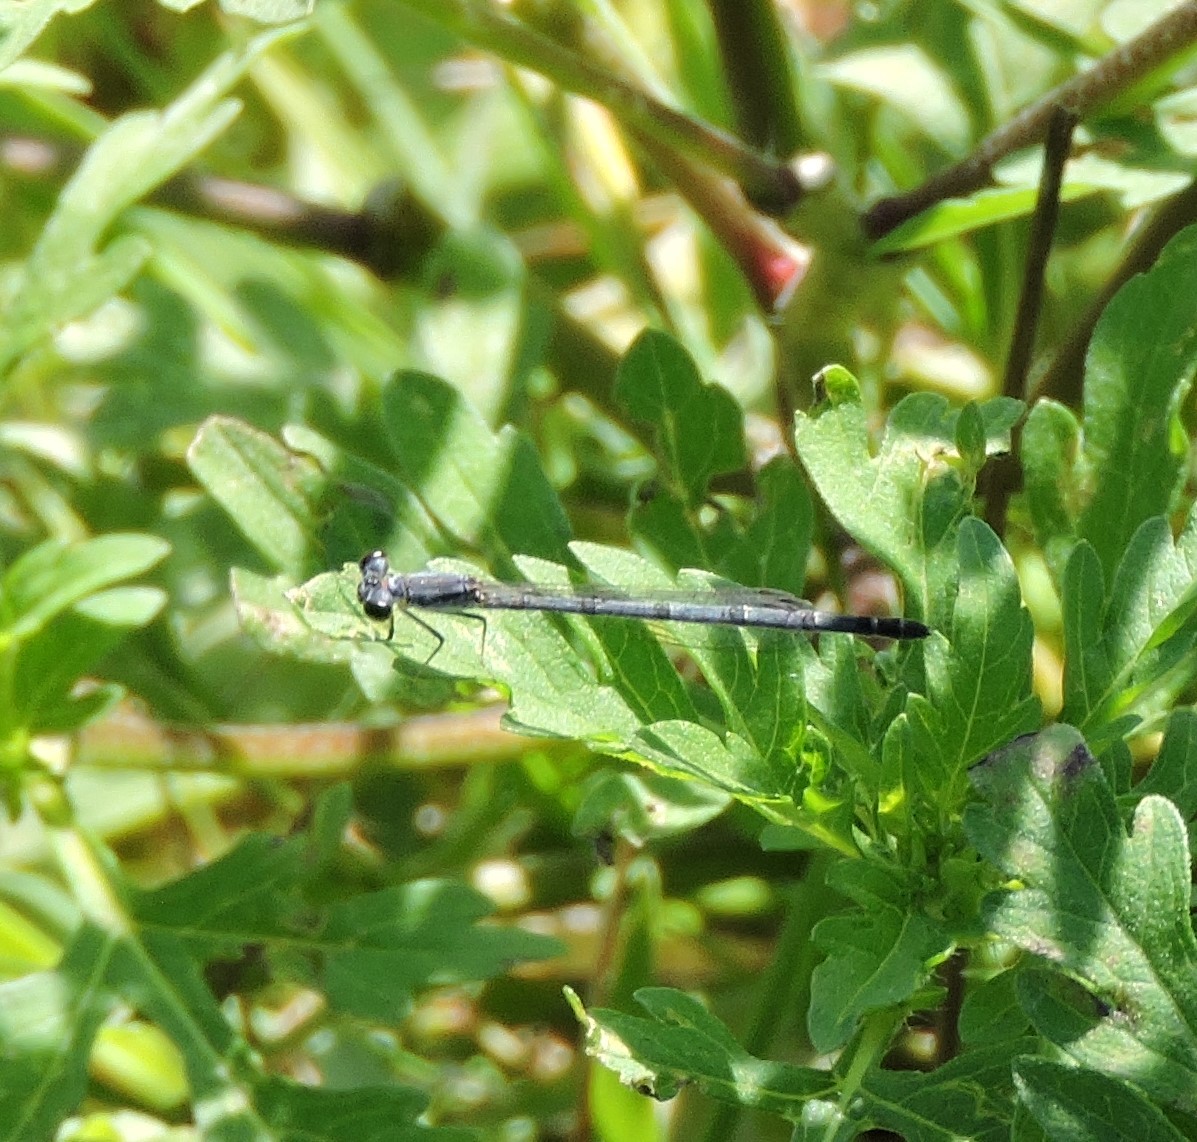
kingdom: Animalia
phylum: Arthropoda
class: Insecta
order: Odonata
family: Coenagrionidae
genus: Ischnura
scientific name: Ischnura posita
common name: Fragile forktail
